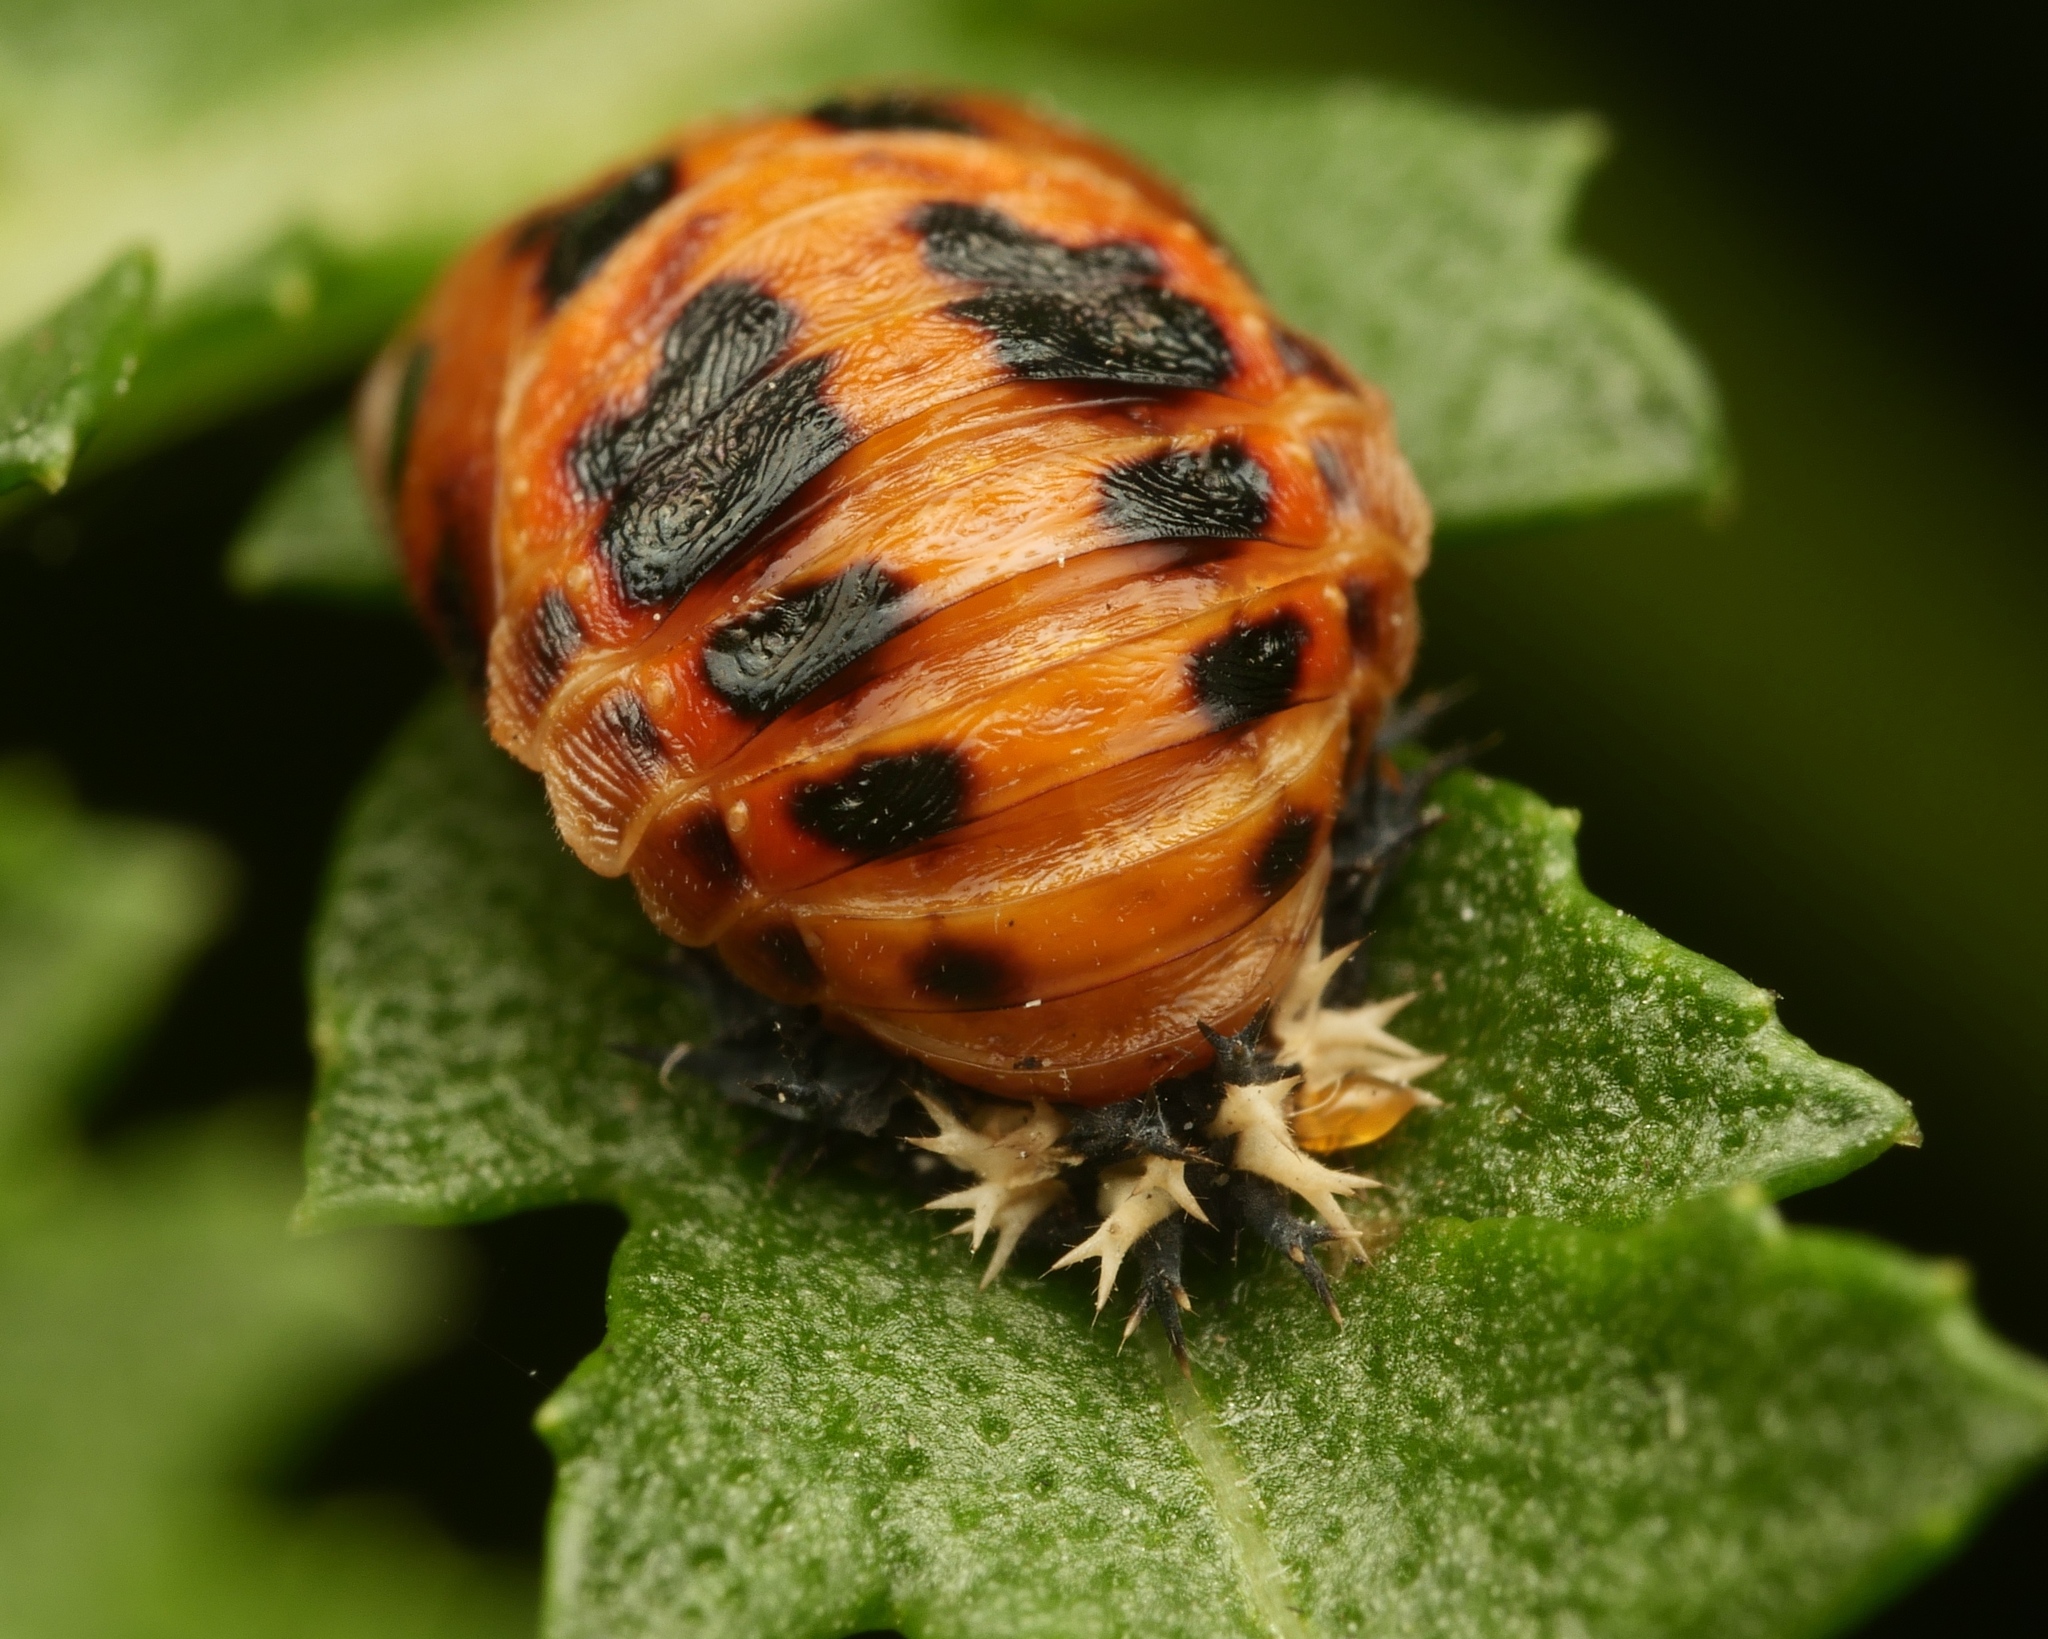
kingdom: Animalia
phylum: Arthropoda
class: Insecta
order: Coleoptera
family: Coccinellidae
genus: Harmonia
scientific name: Harmonia axyridis
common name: Harlequin ladybird
